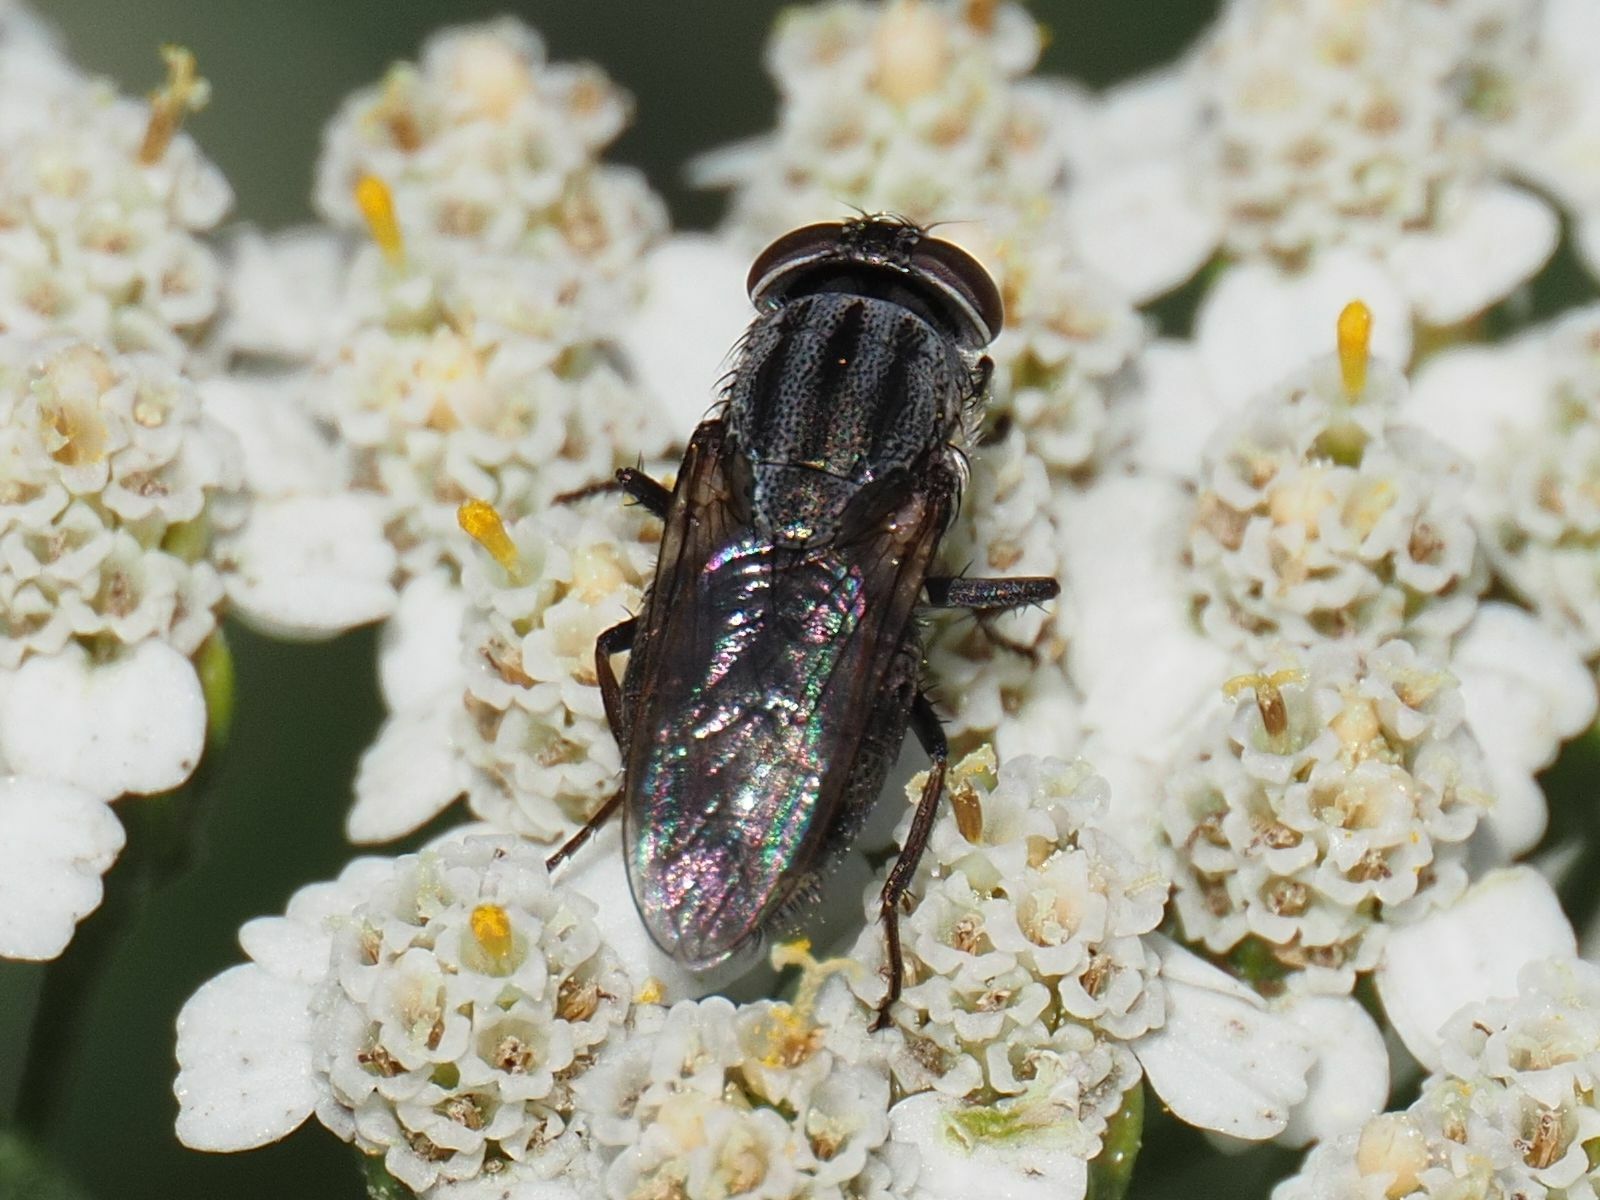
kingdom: Animalia
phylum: Arthropoda
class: Insecta
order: Diptera
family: Calliphoridae
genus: Stomorhina
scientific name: Stomorhina lunata
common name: Locust blowfly
